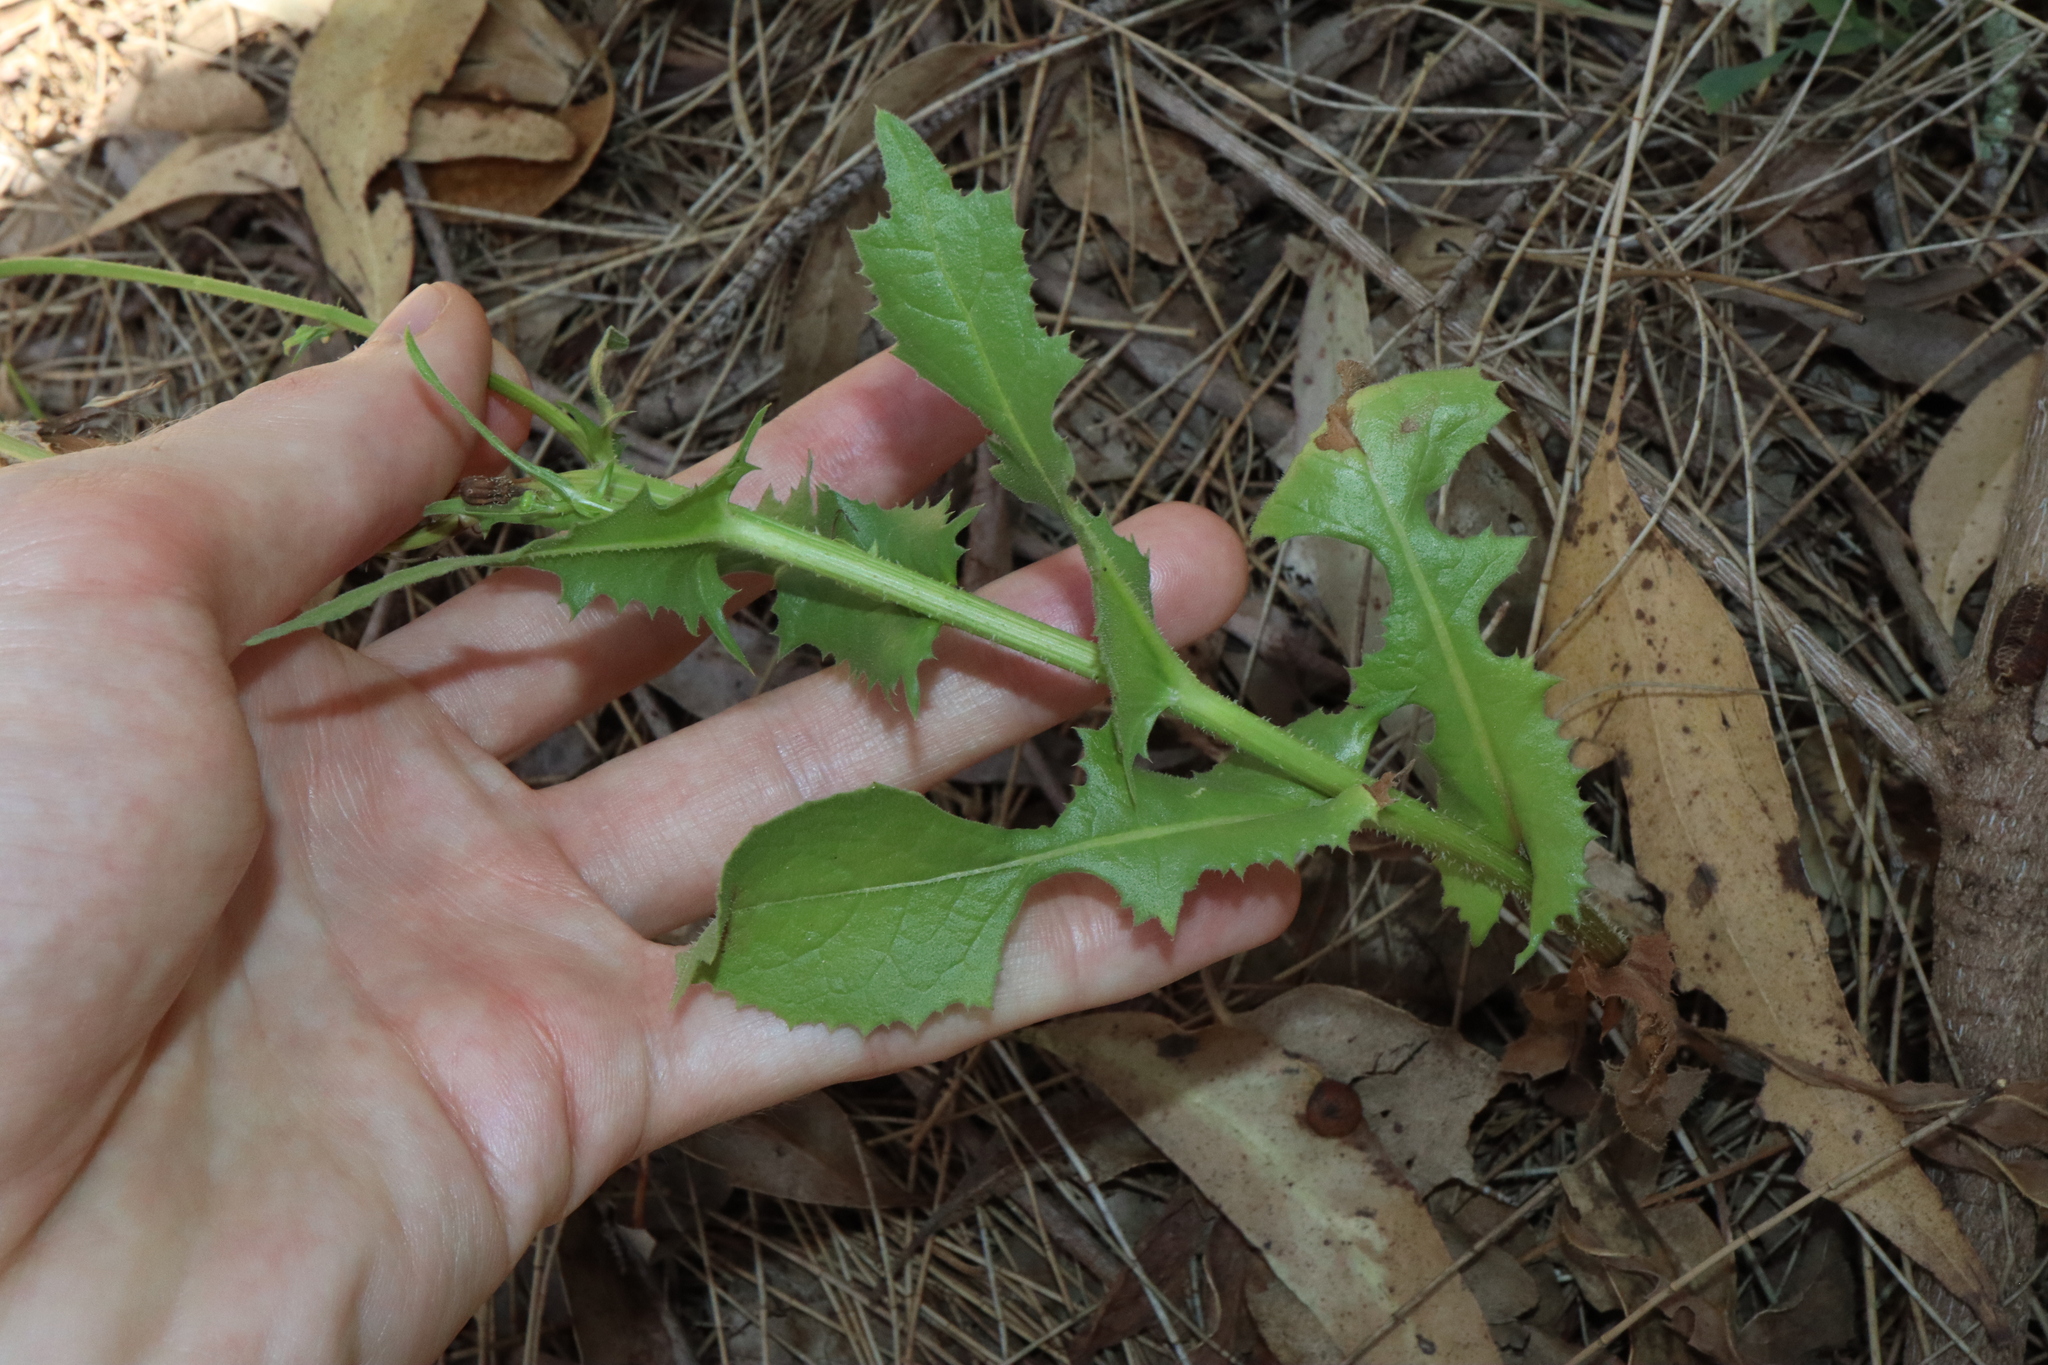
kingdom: Plantae
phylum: Tracheophyta
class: Magnoliopsida
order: Asterales
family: Asteraceae
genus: Urospermum
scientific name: Urospermum picroides
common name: False hawkbit
